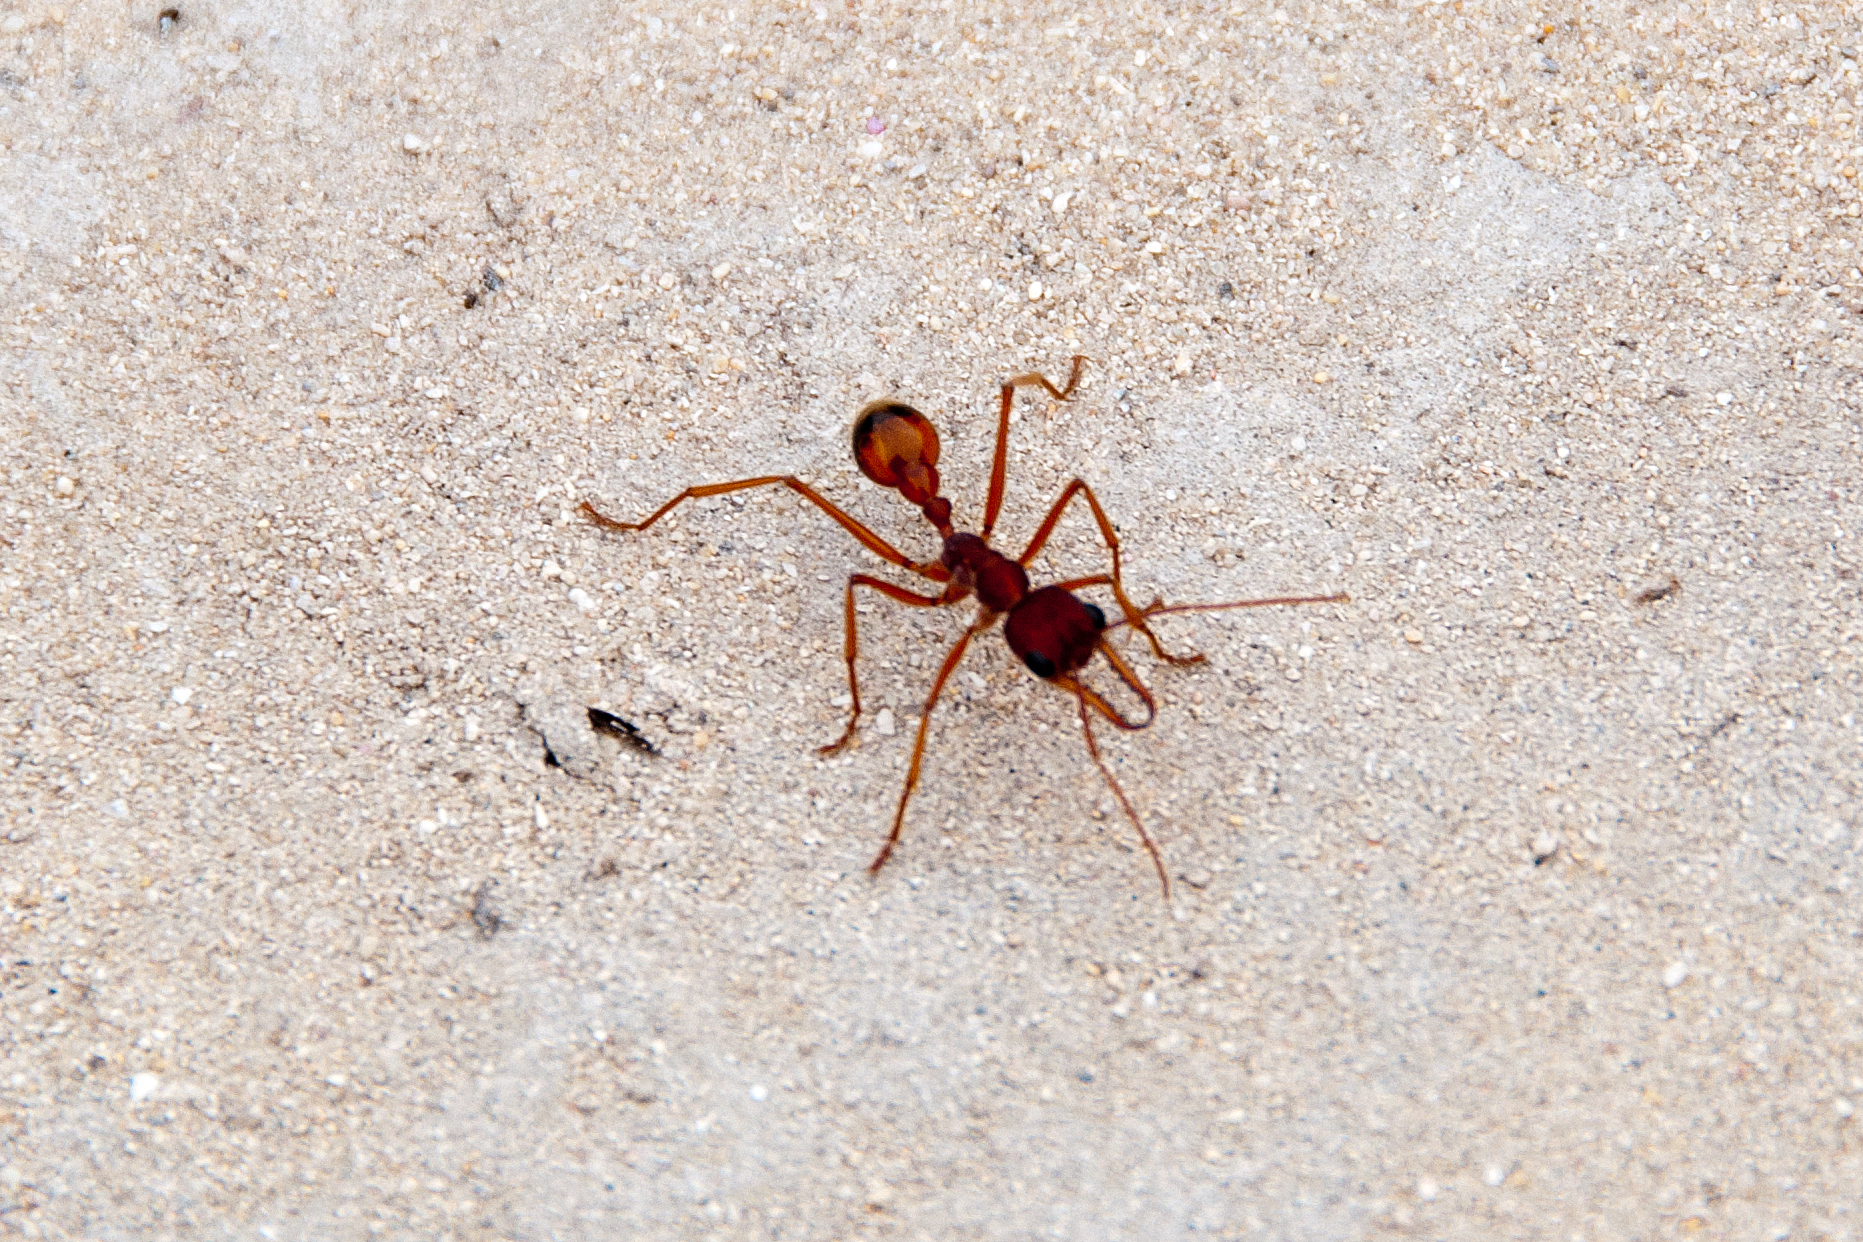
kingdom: Animalia
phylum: Arthropoda
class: Insecta
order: Hymenoptera
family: Formicidae
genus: Myrmecia
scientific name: Myrmecia nigriscapa
